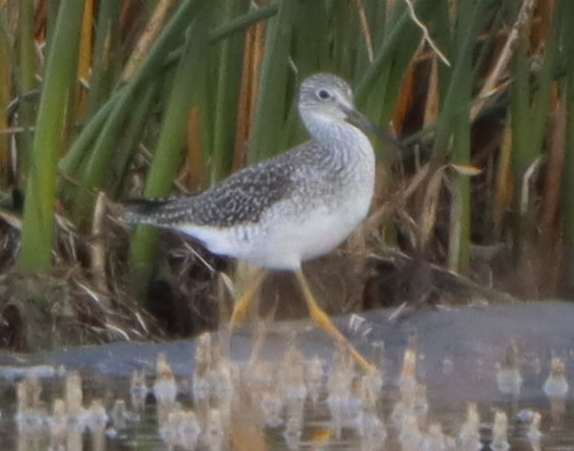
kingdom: Animalia
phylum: Chordata
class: Aves
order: Charadriiformes
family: Scolopacidae
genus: Tringa
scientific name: Tringa melanoleuca
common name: Greater yellowlegs
